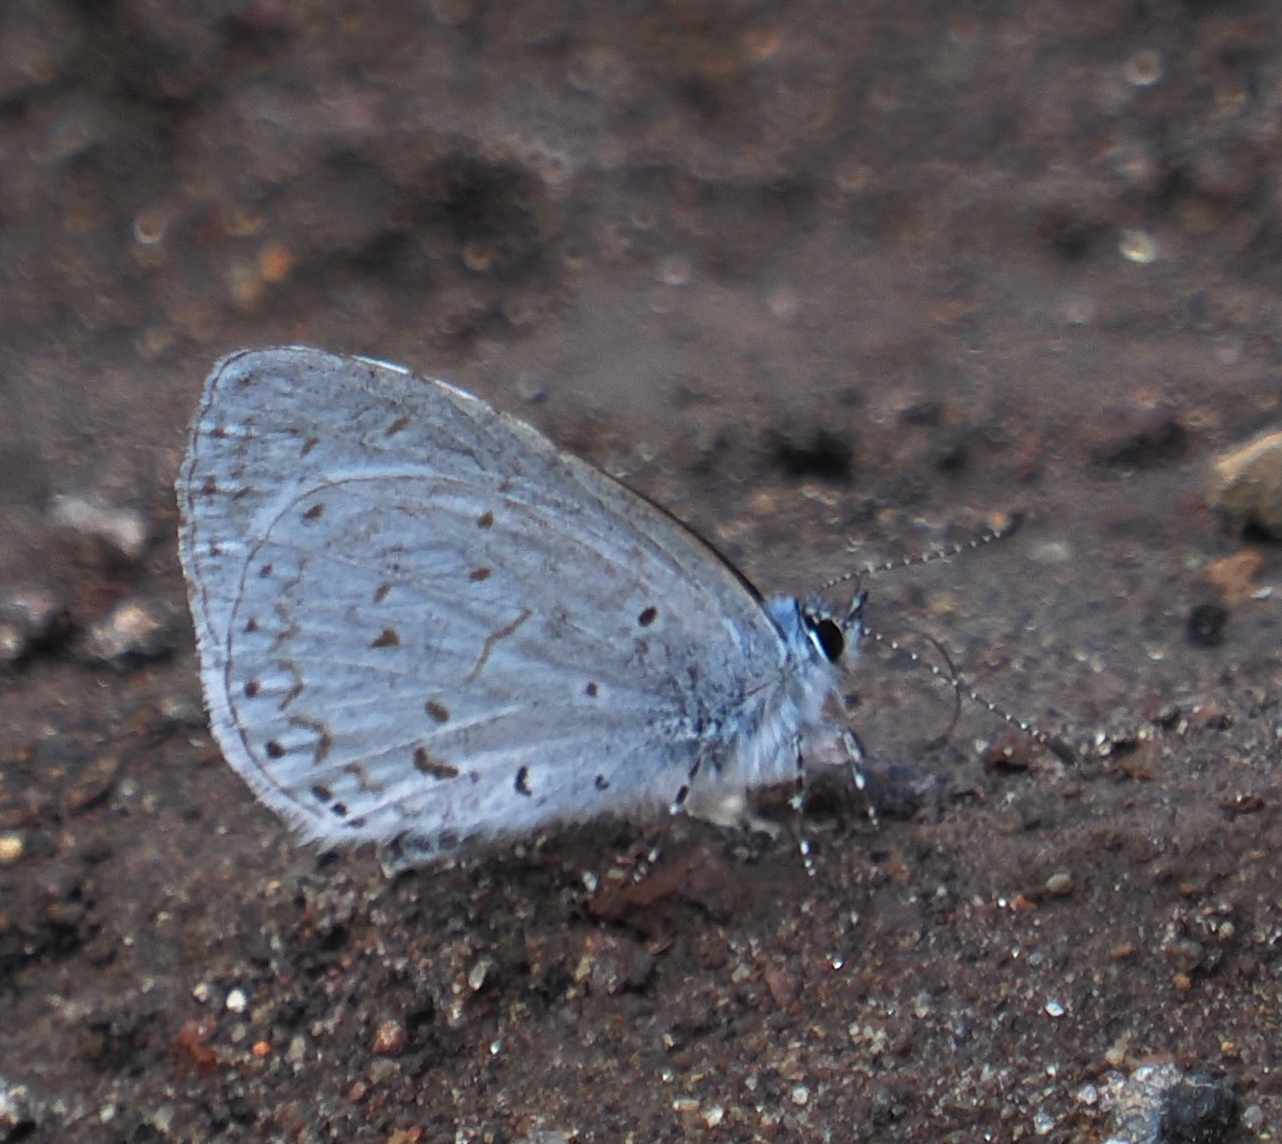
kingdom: Animalia
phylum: Arthropoda
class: Insecta
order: Lepidoptera
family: Lycaenidae
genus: Udara
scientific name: Udara dilectus
